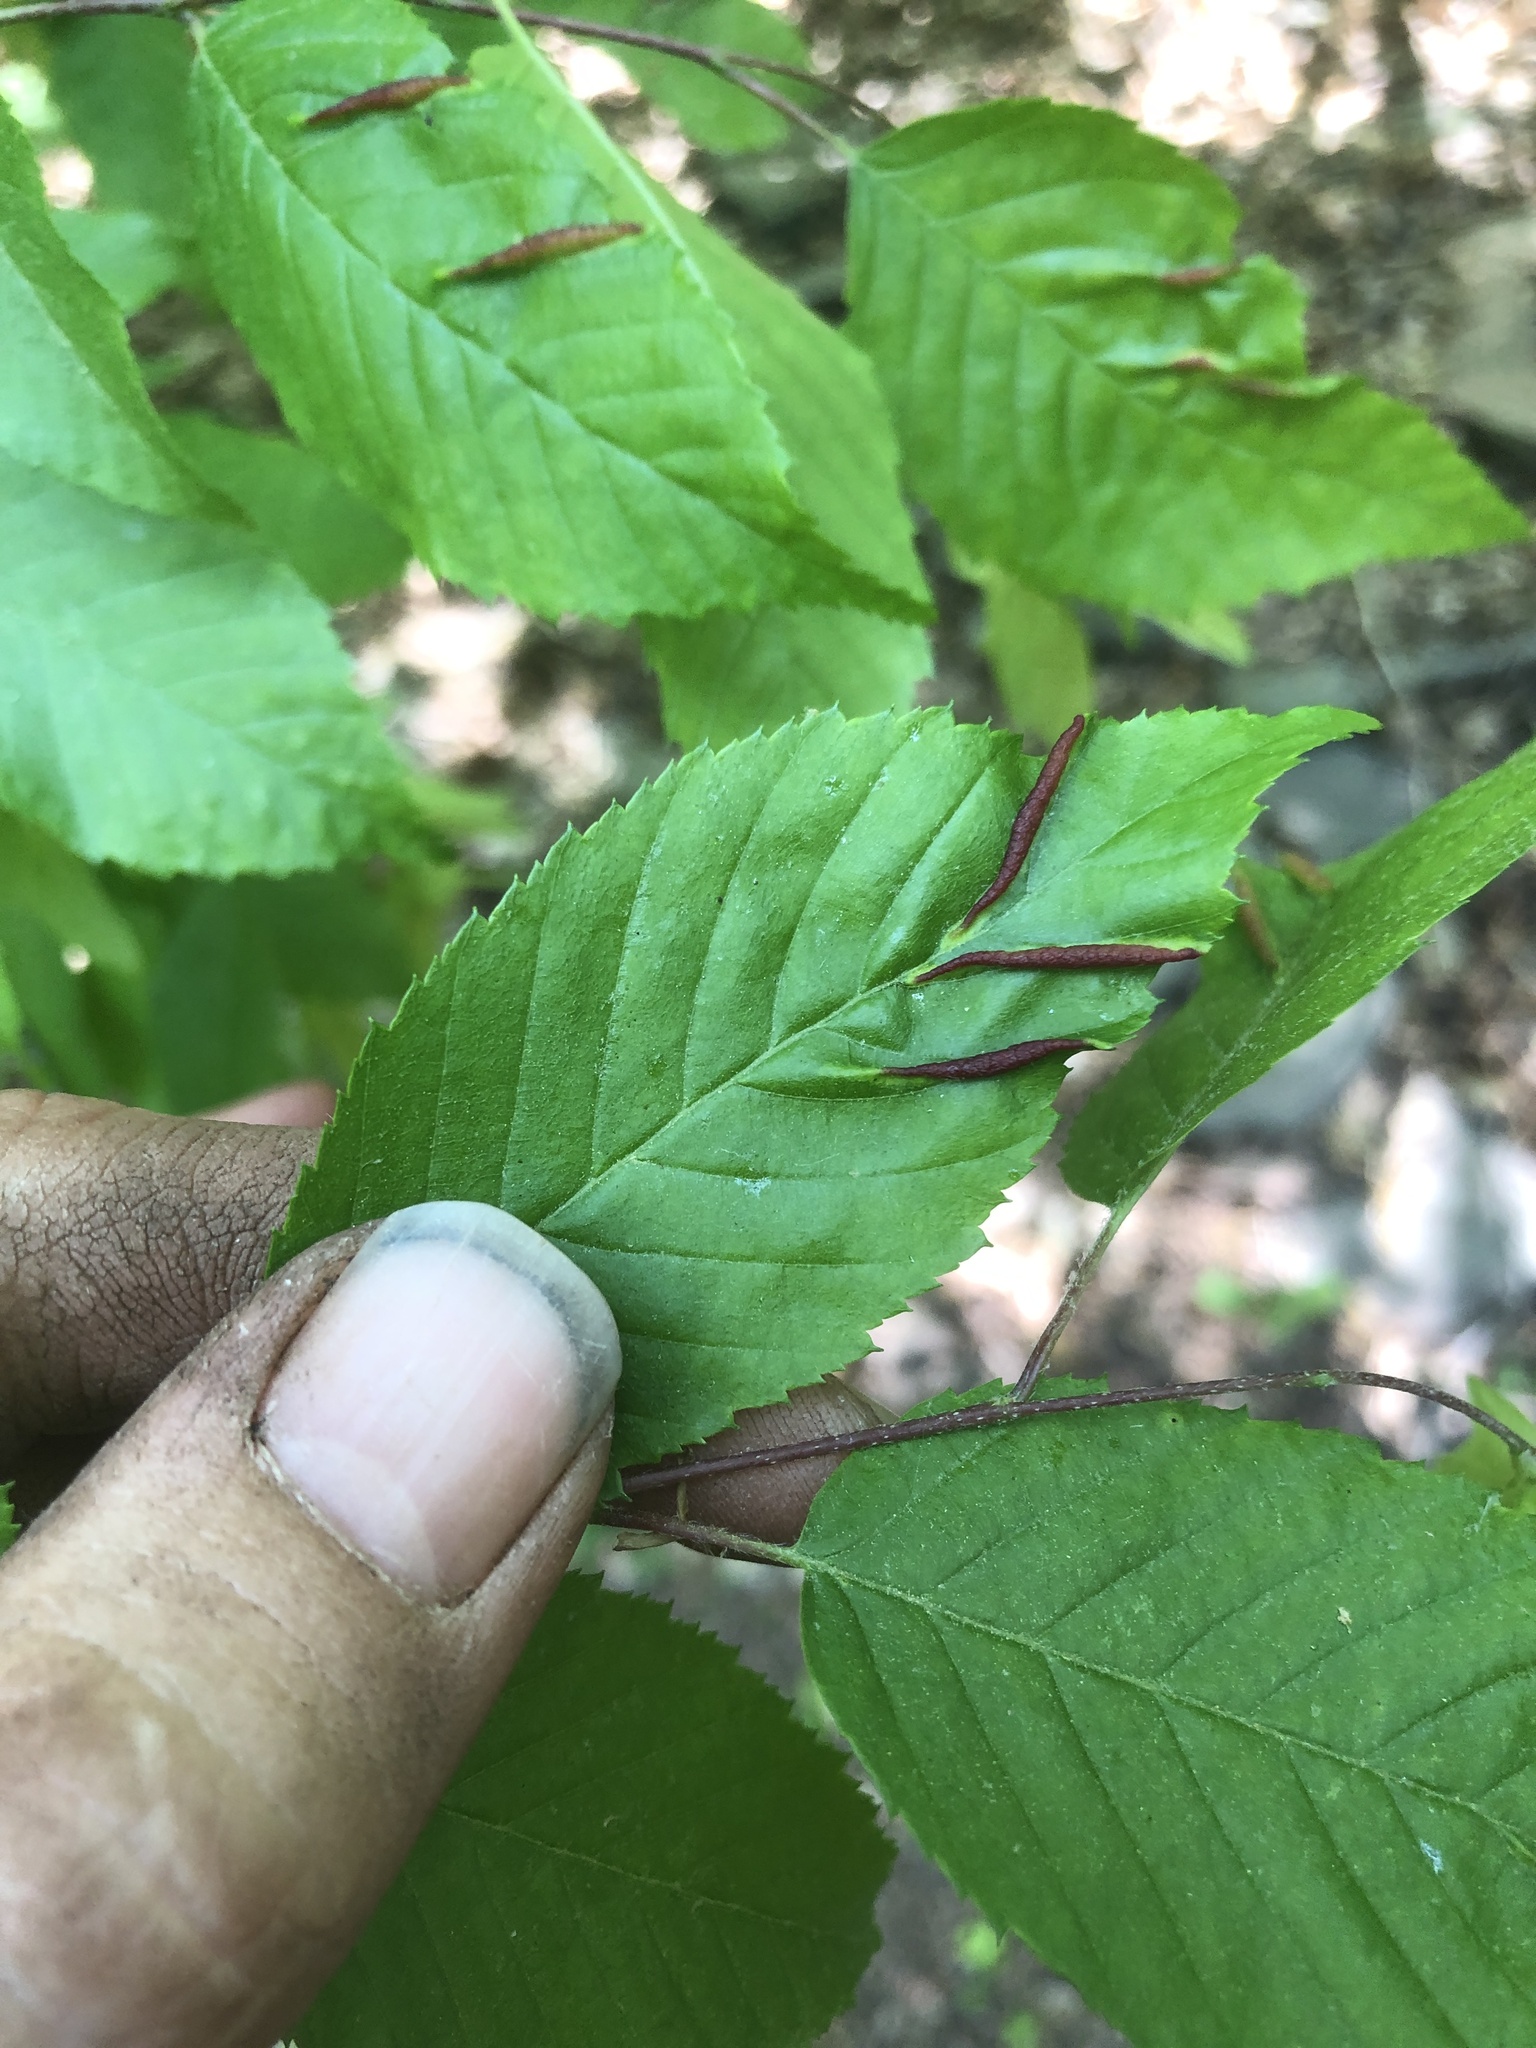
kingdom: Animalia
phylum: Arthropoda
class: Insecta
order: Diptera
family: Cecidomyiidae
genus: Dasineura
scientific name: Dasineura pudibunda
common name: Hornbeam leaf gall midge
